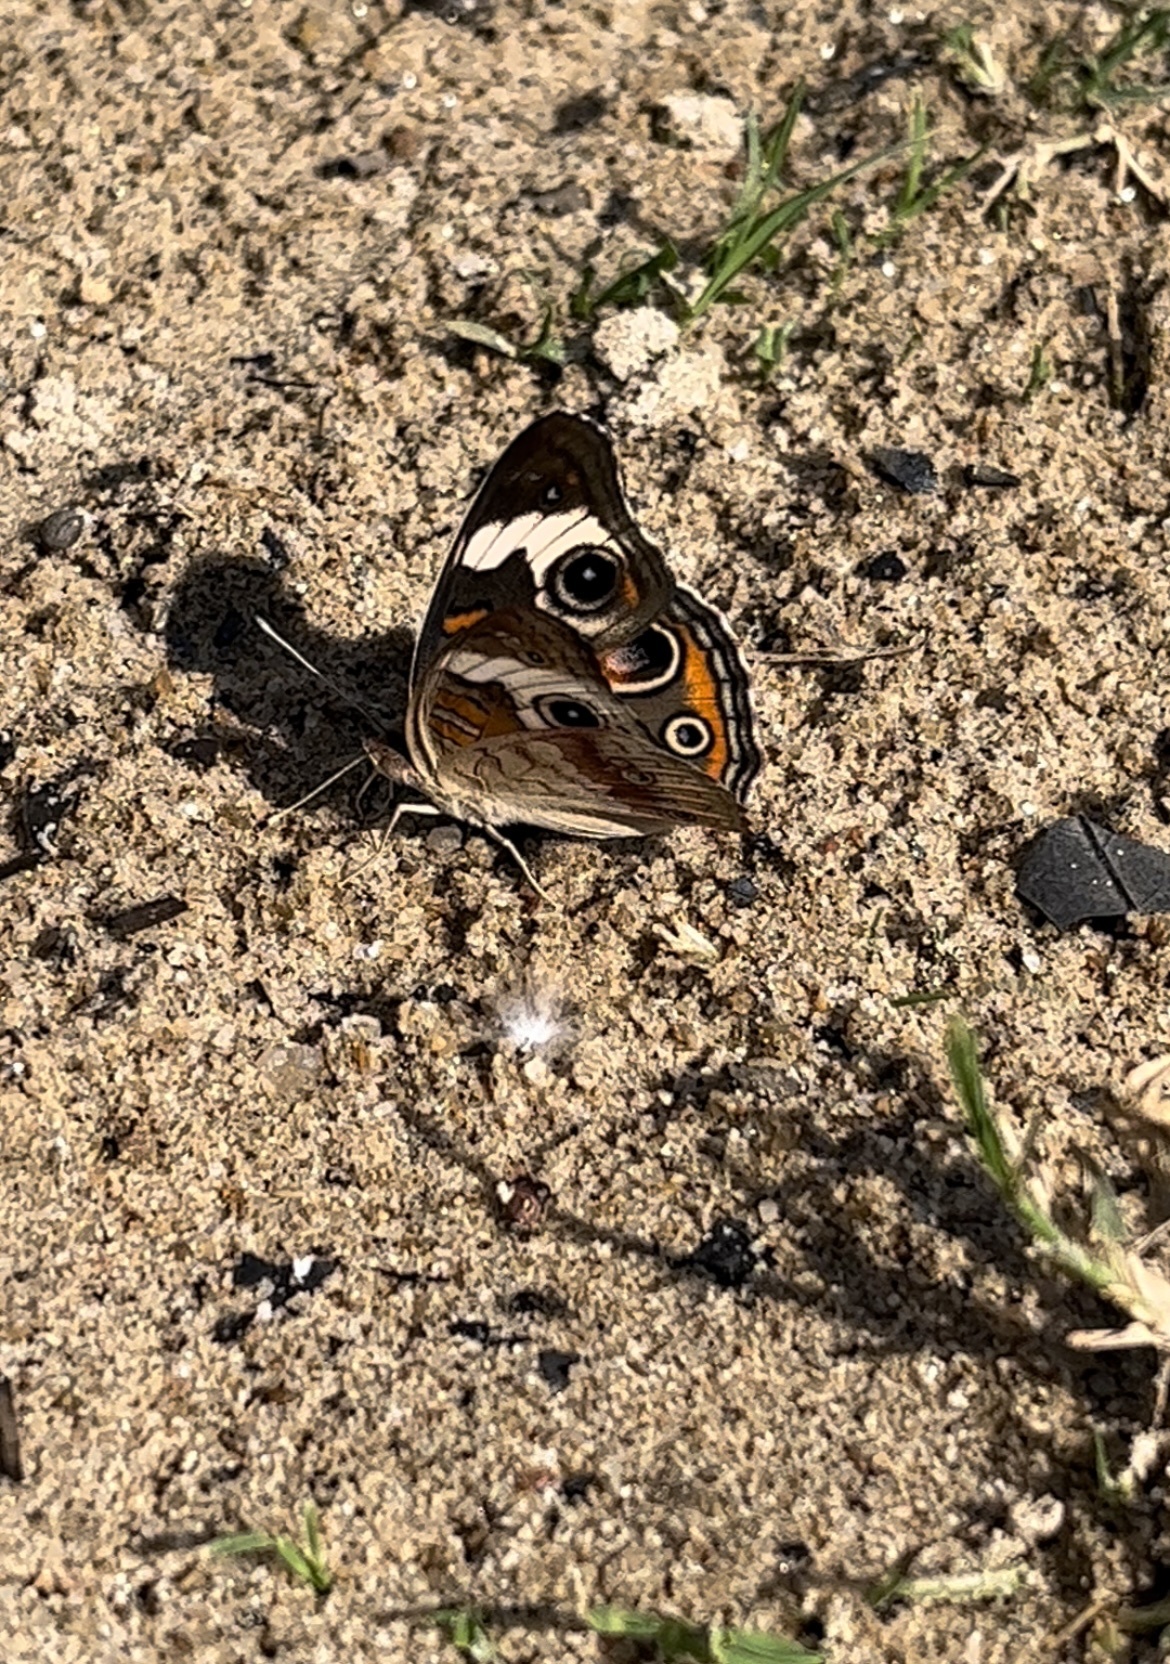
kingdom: Animalia
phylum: Arthropoda
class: Insecta
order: Lepidoptera
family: Nymphalidae
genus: Junonia
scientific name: Junonia coenia
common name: Common buckeye
